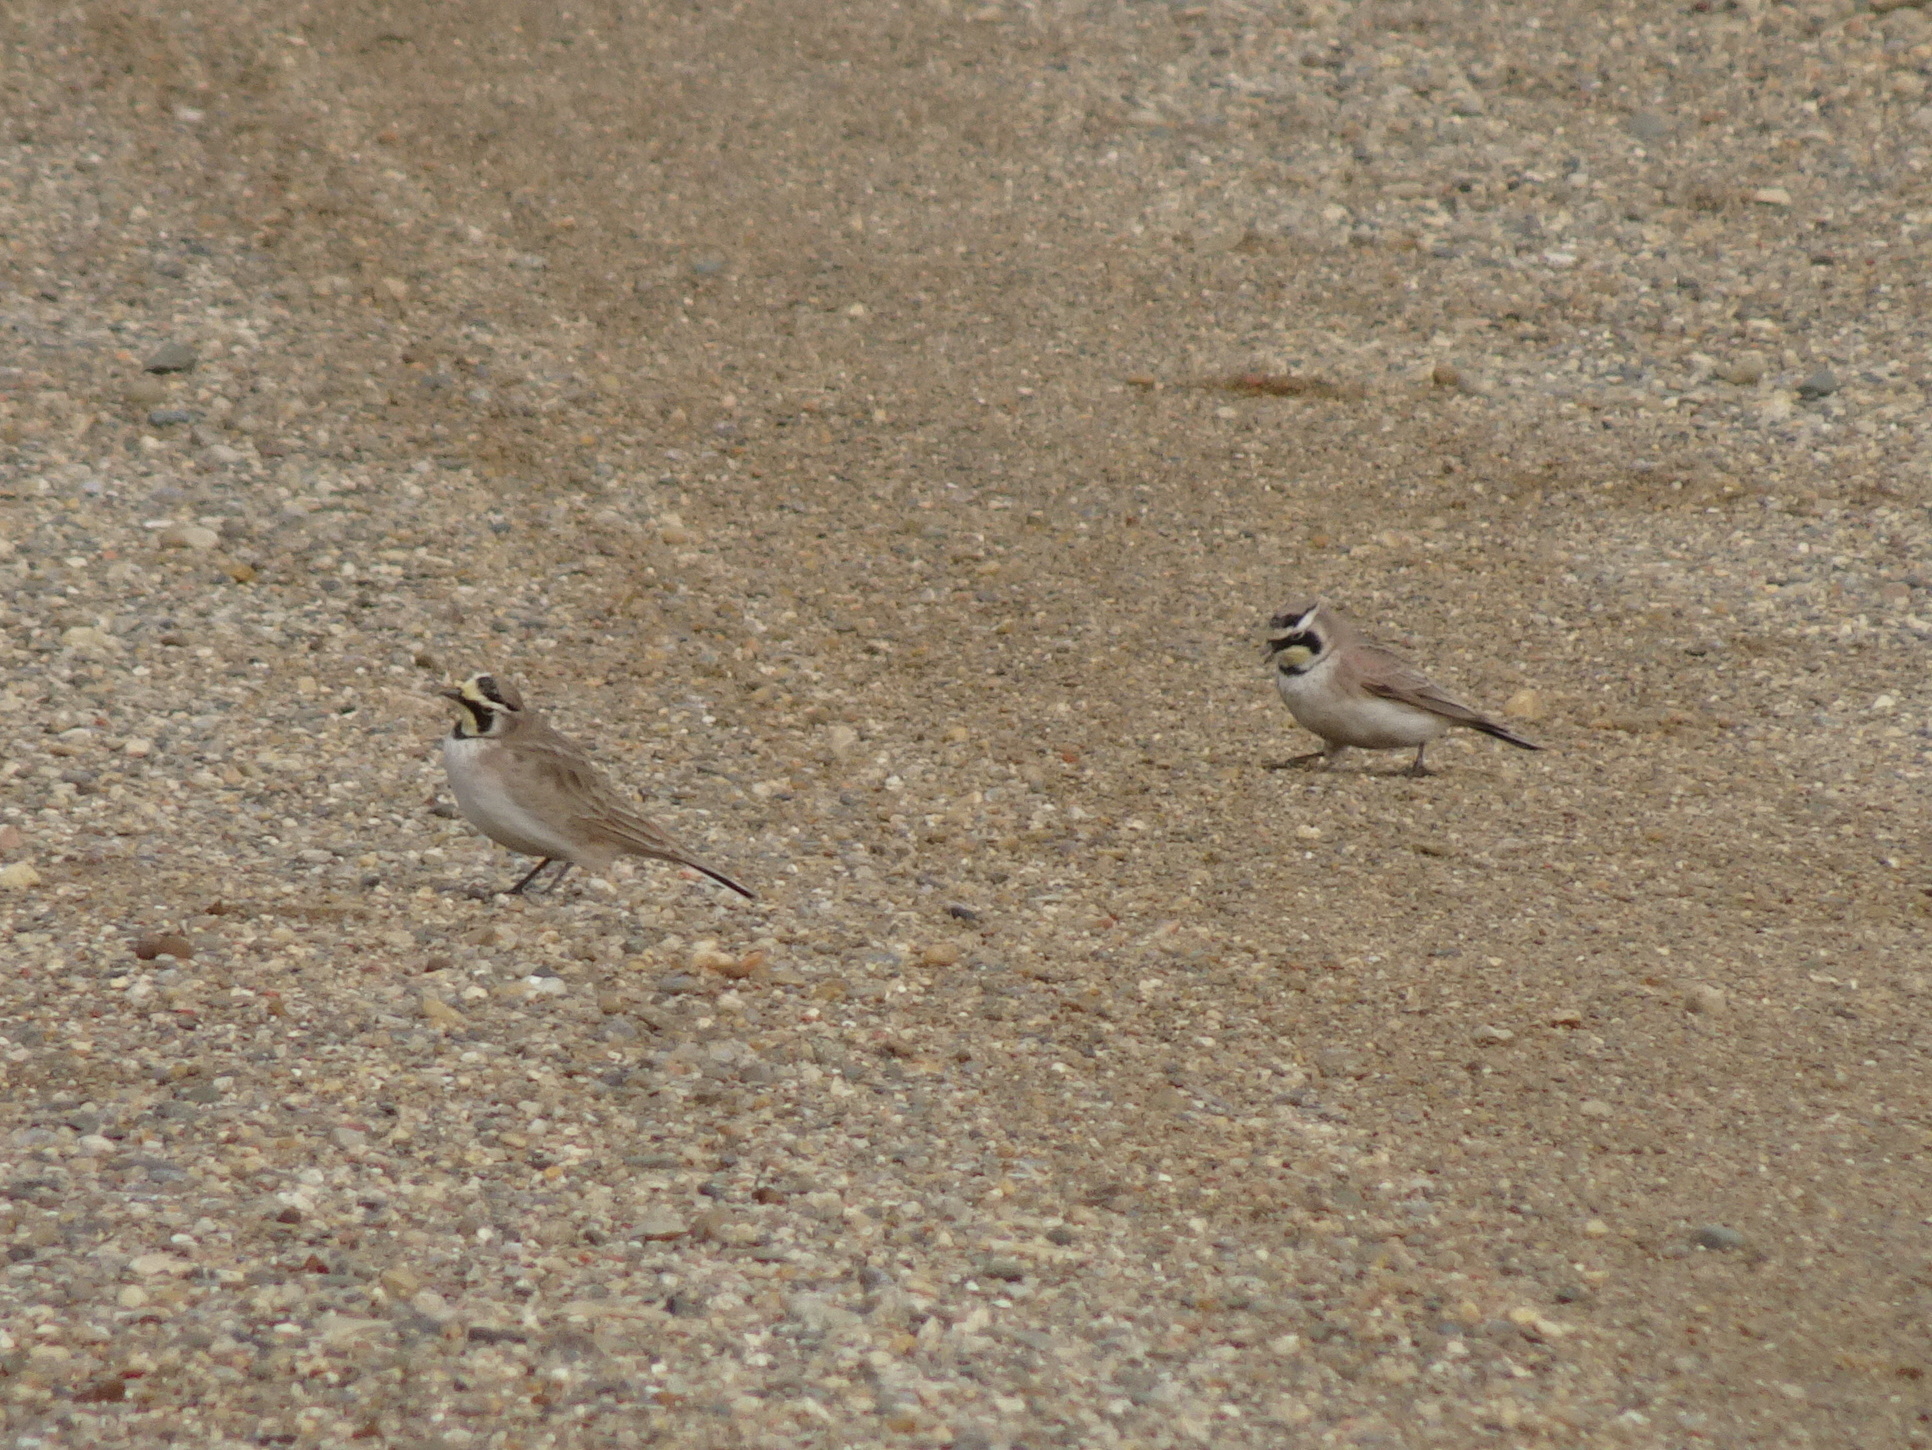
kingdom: Animalia
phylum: Chordata
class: Aves
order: Passeriformes
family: Alaudidae
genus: Eremophila
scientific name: Eremophila alpestris
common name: Horned lark
